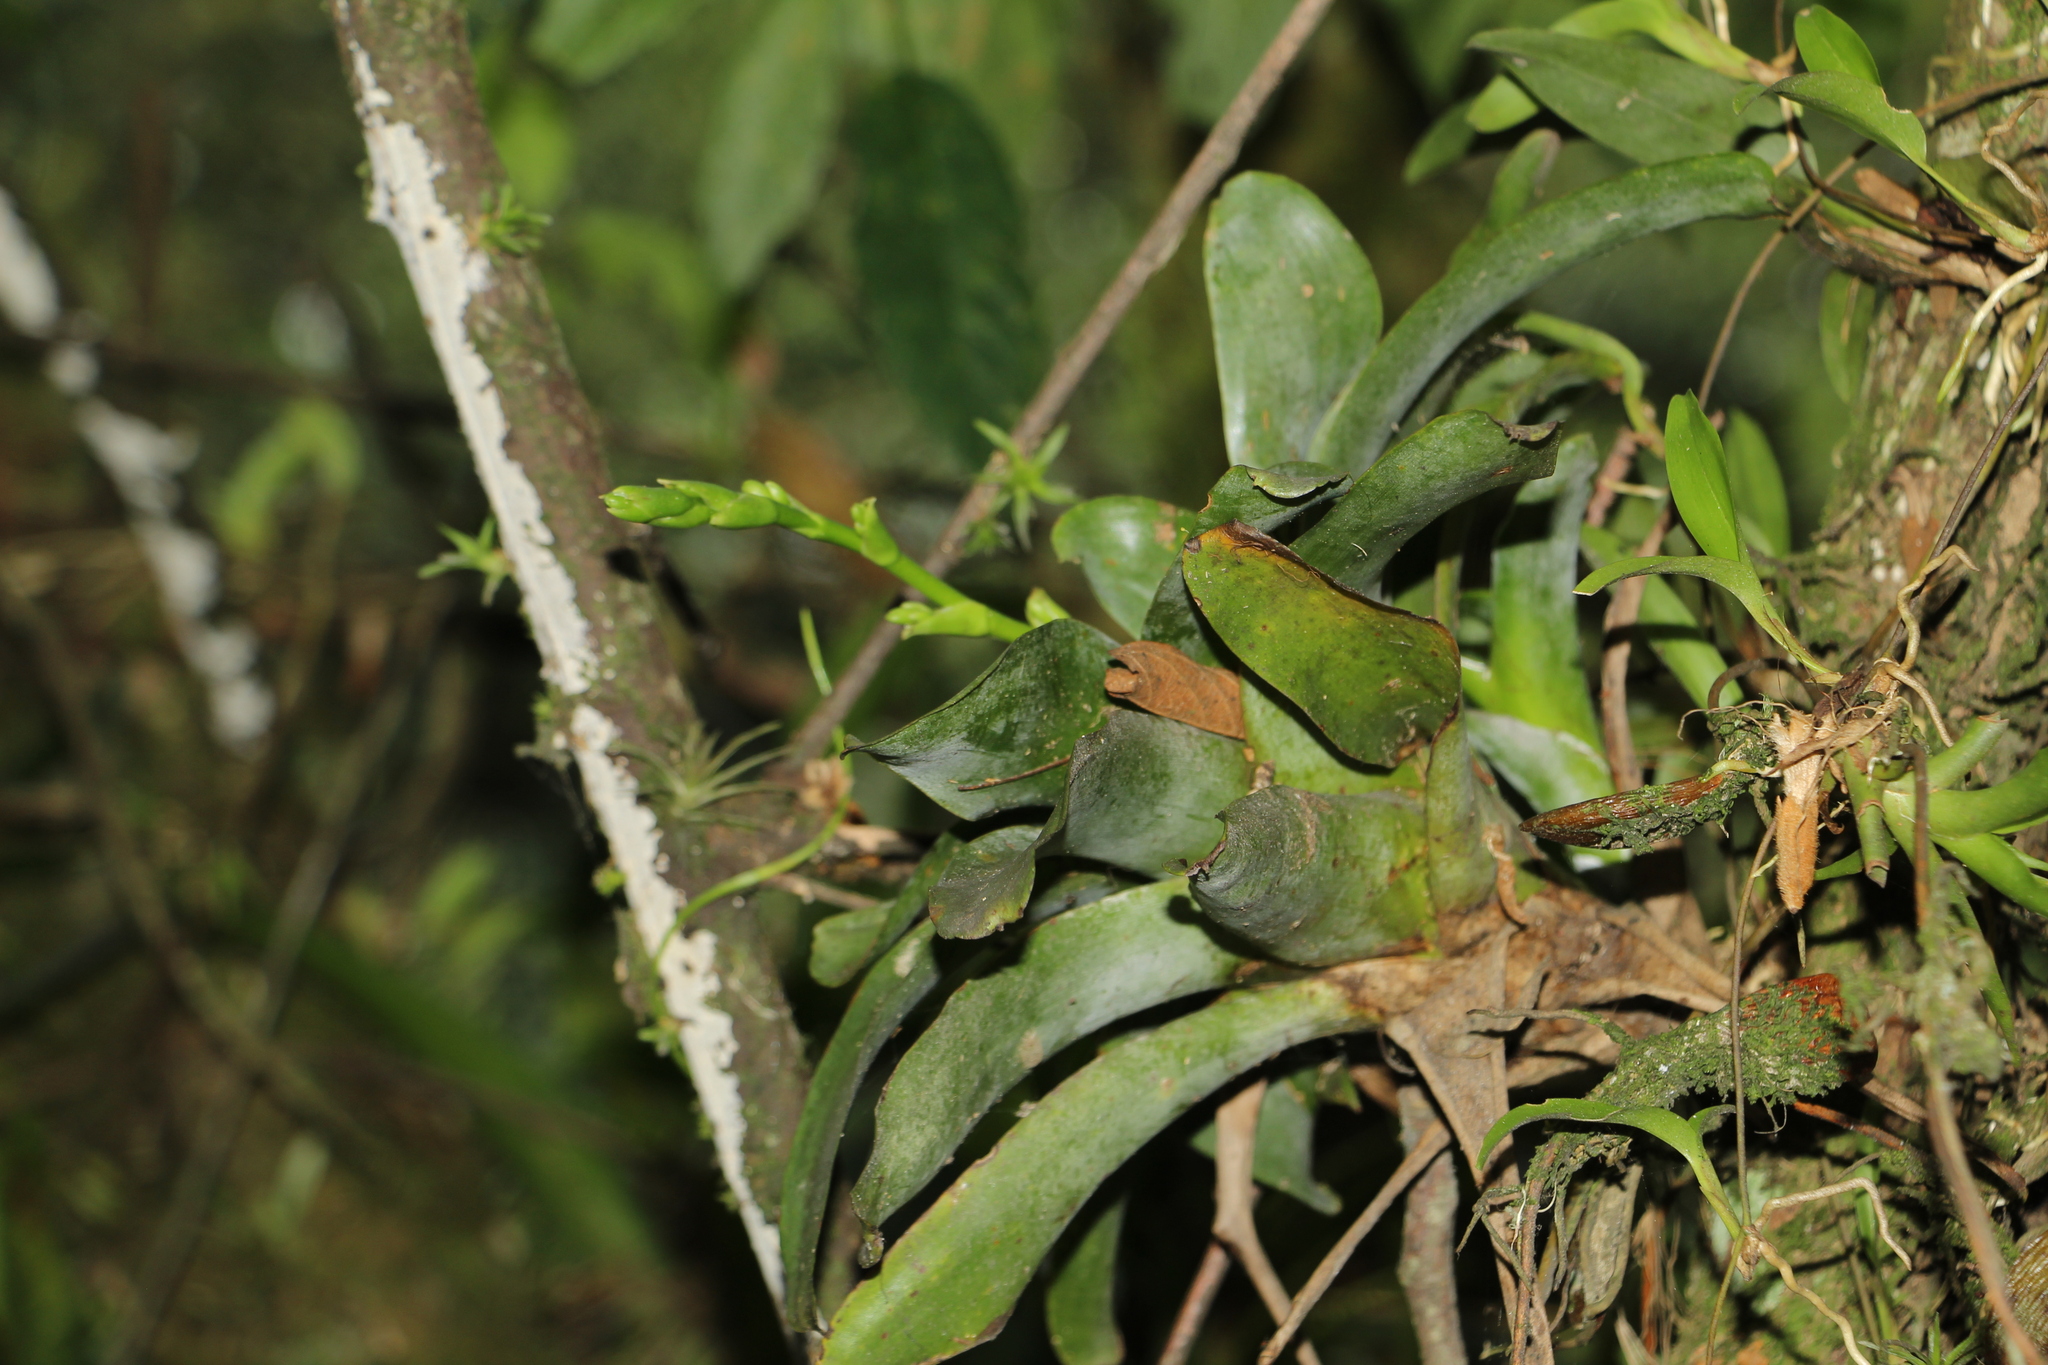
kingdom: Plantae
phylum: Tracheophyta
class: Liliopsida
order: Poales
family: Bromeliaceae
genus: Catopsis
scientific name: Catopsis nutans
